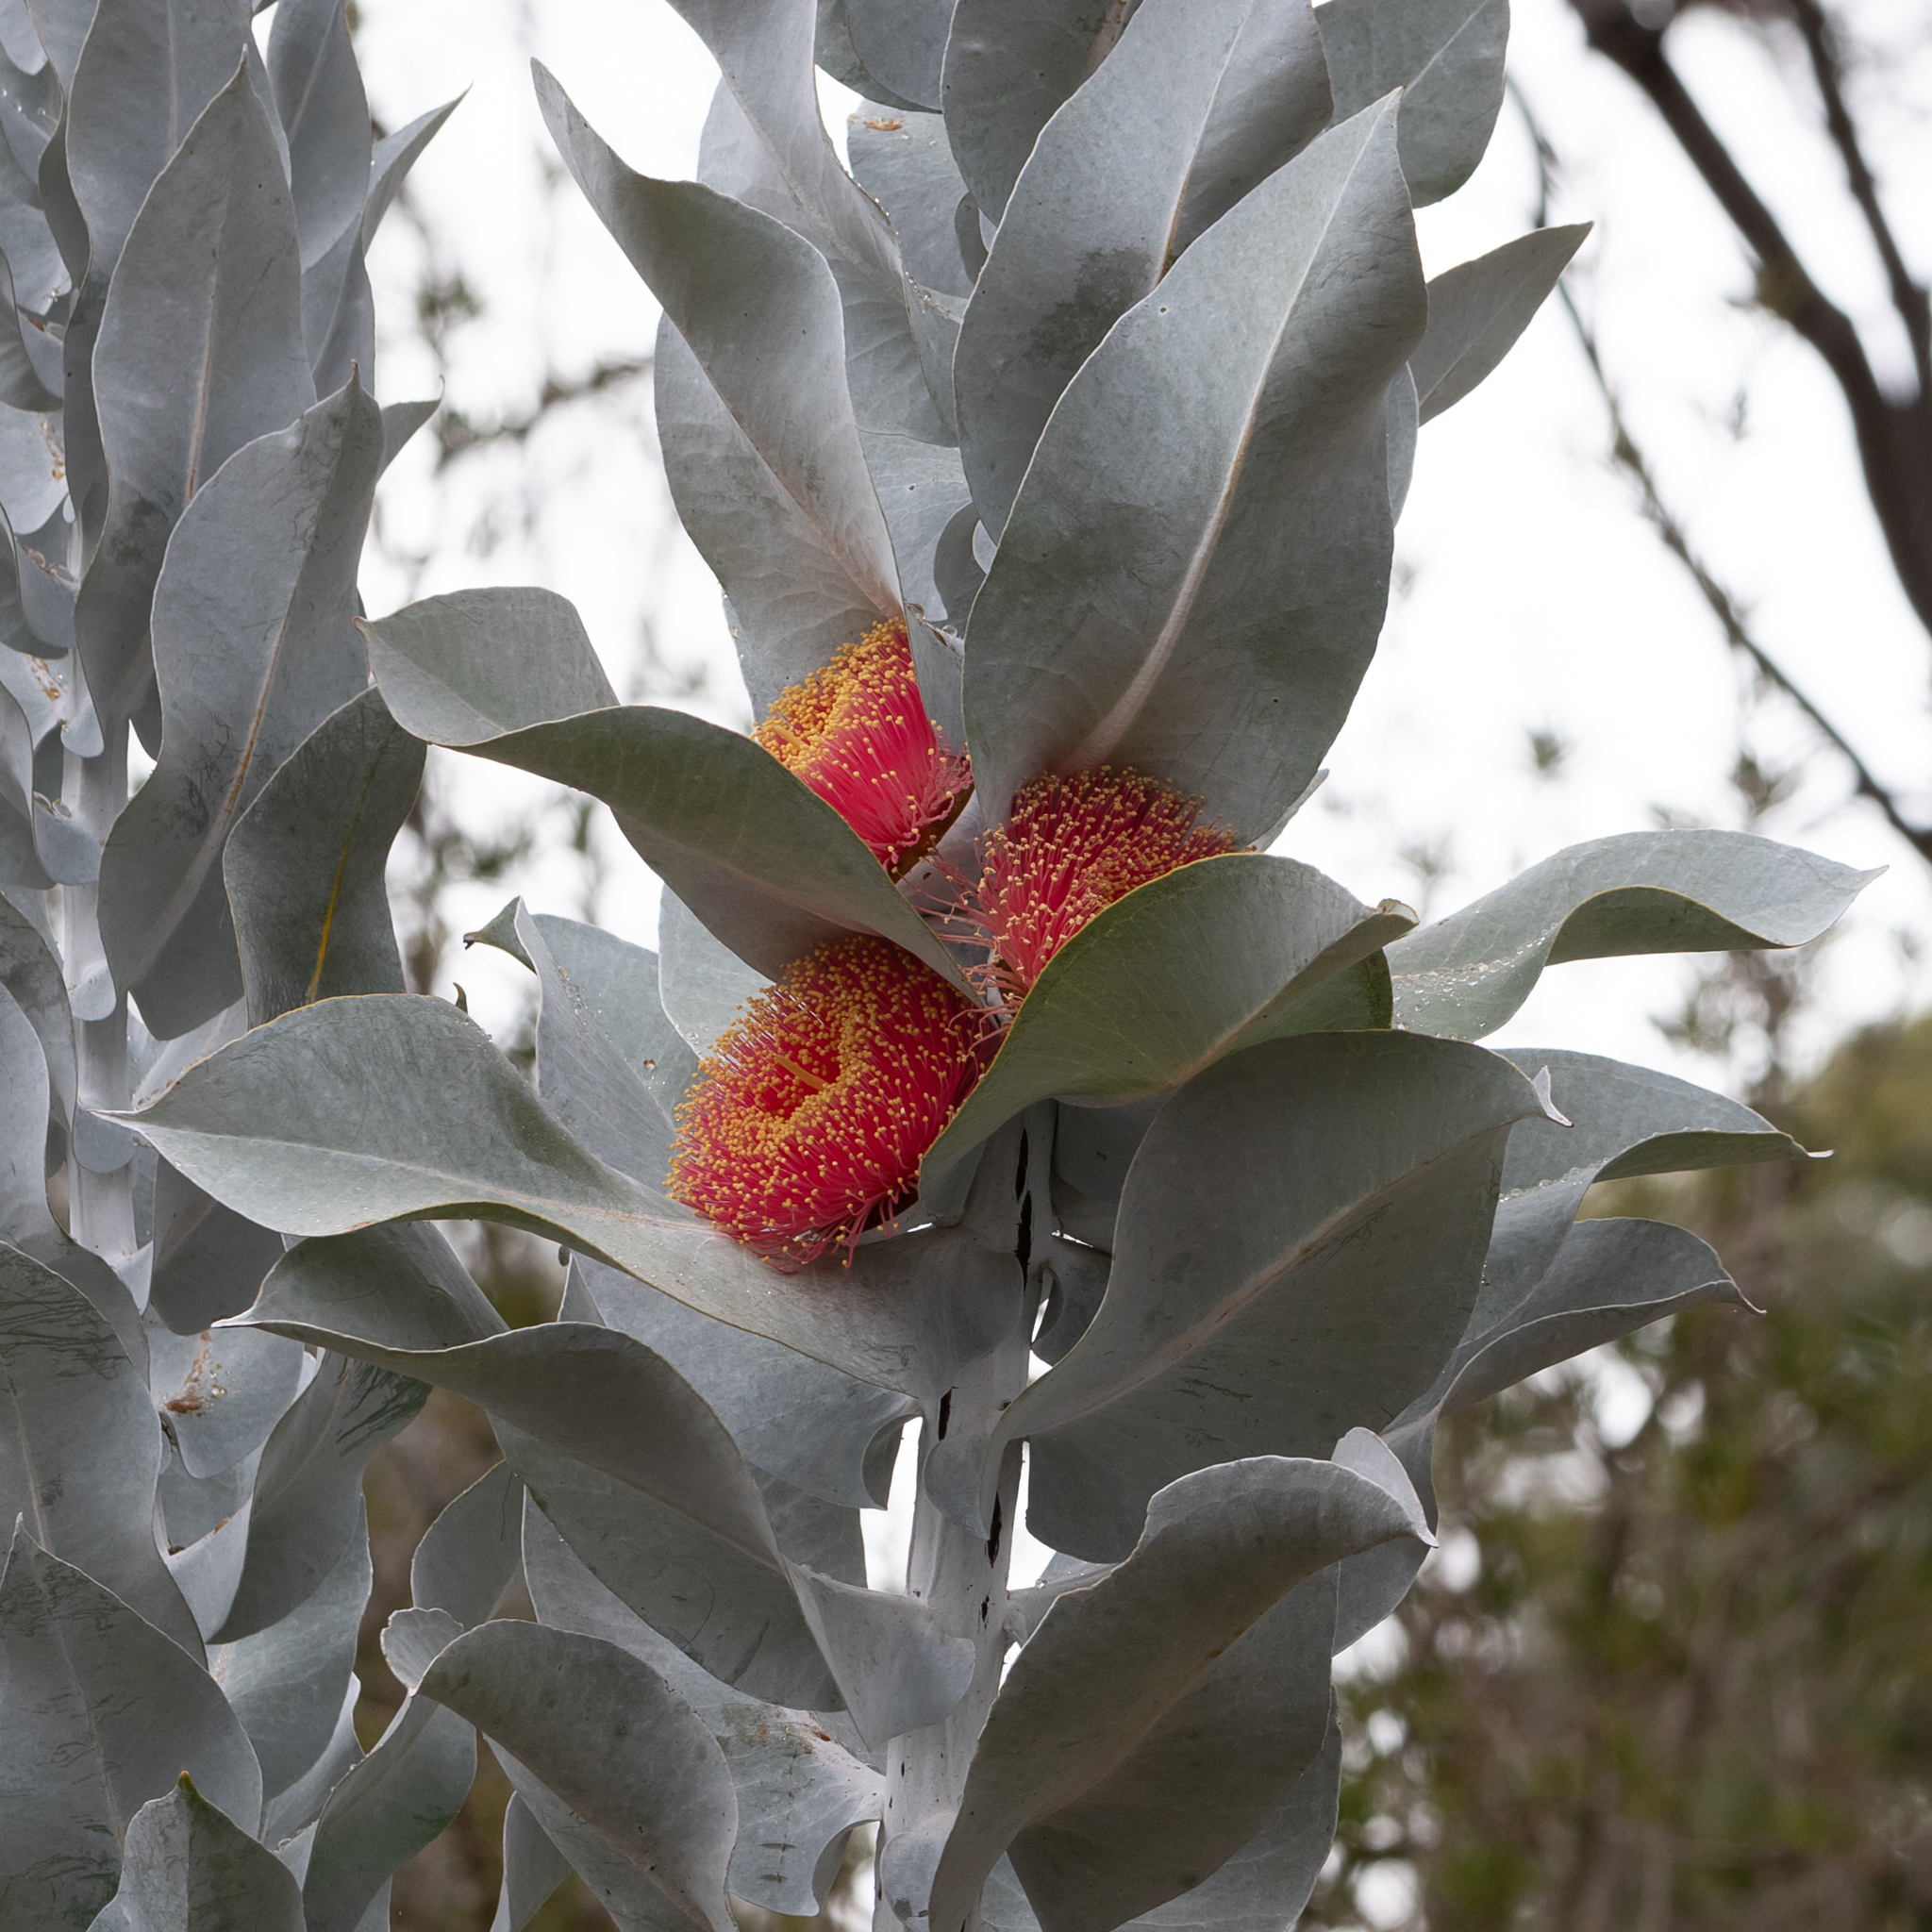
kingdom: Plantae
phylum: Tracheophyta
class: Magnoliopsida
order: Myrtales
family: Myrtaceae
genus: Eucalyptus
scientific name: Eucalyptus macrocarpa
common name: Mottlecah
